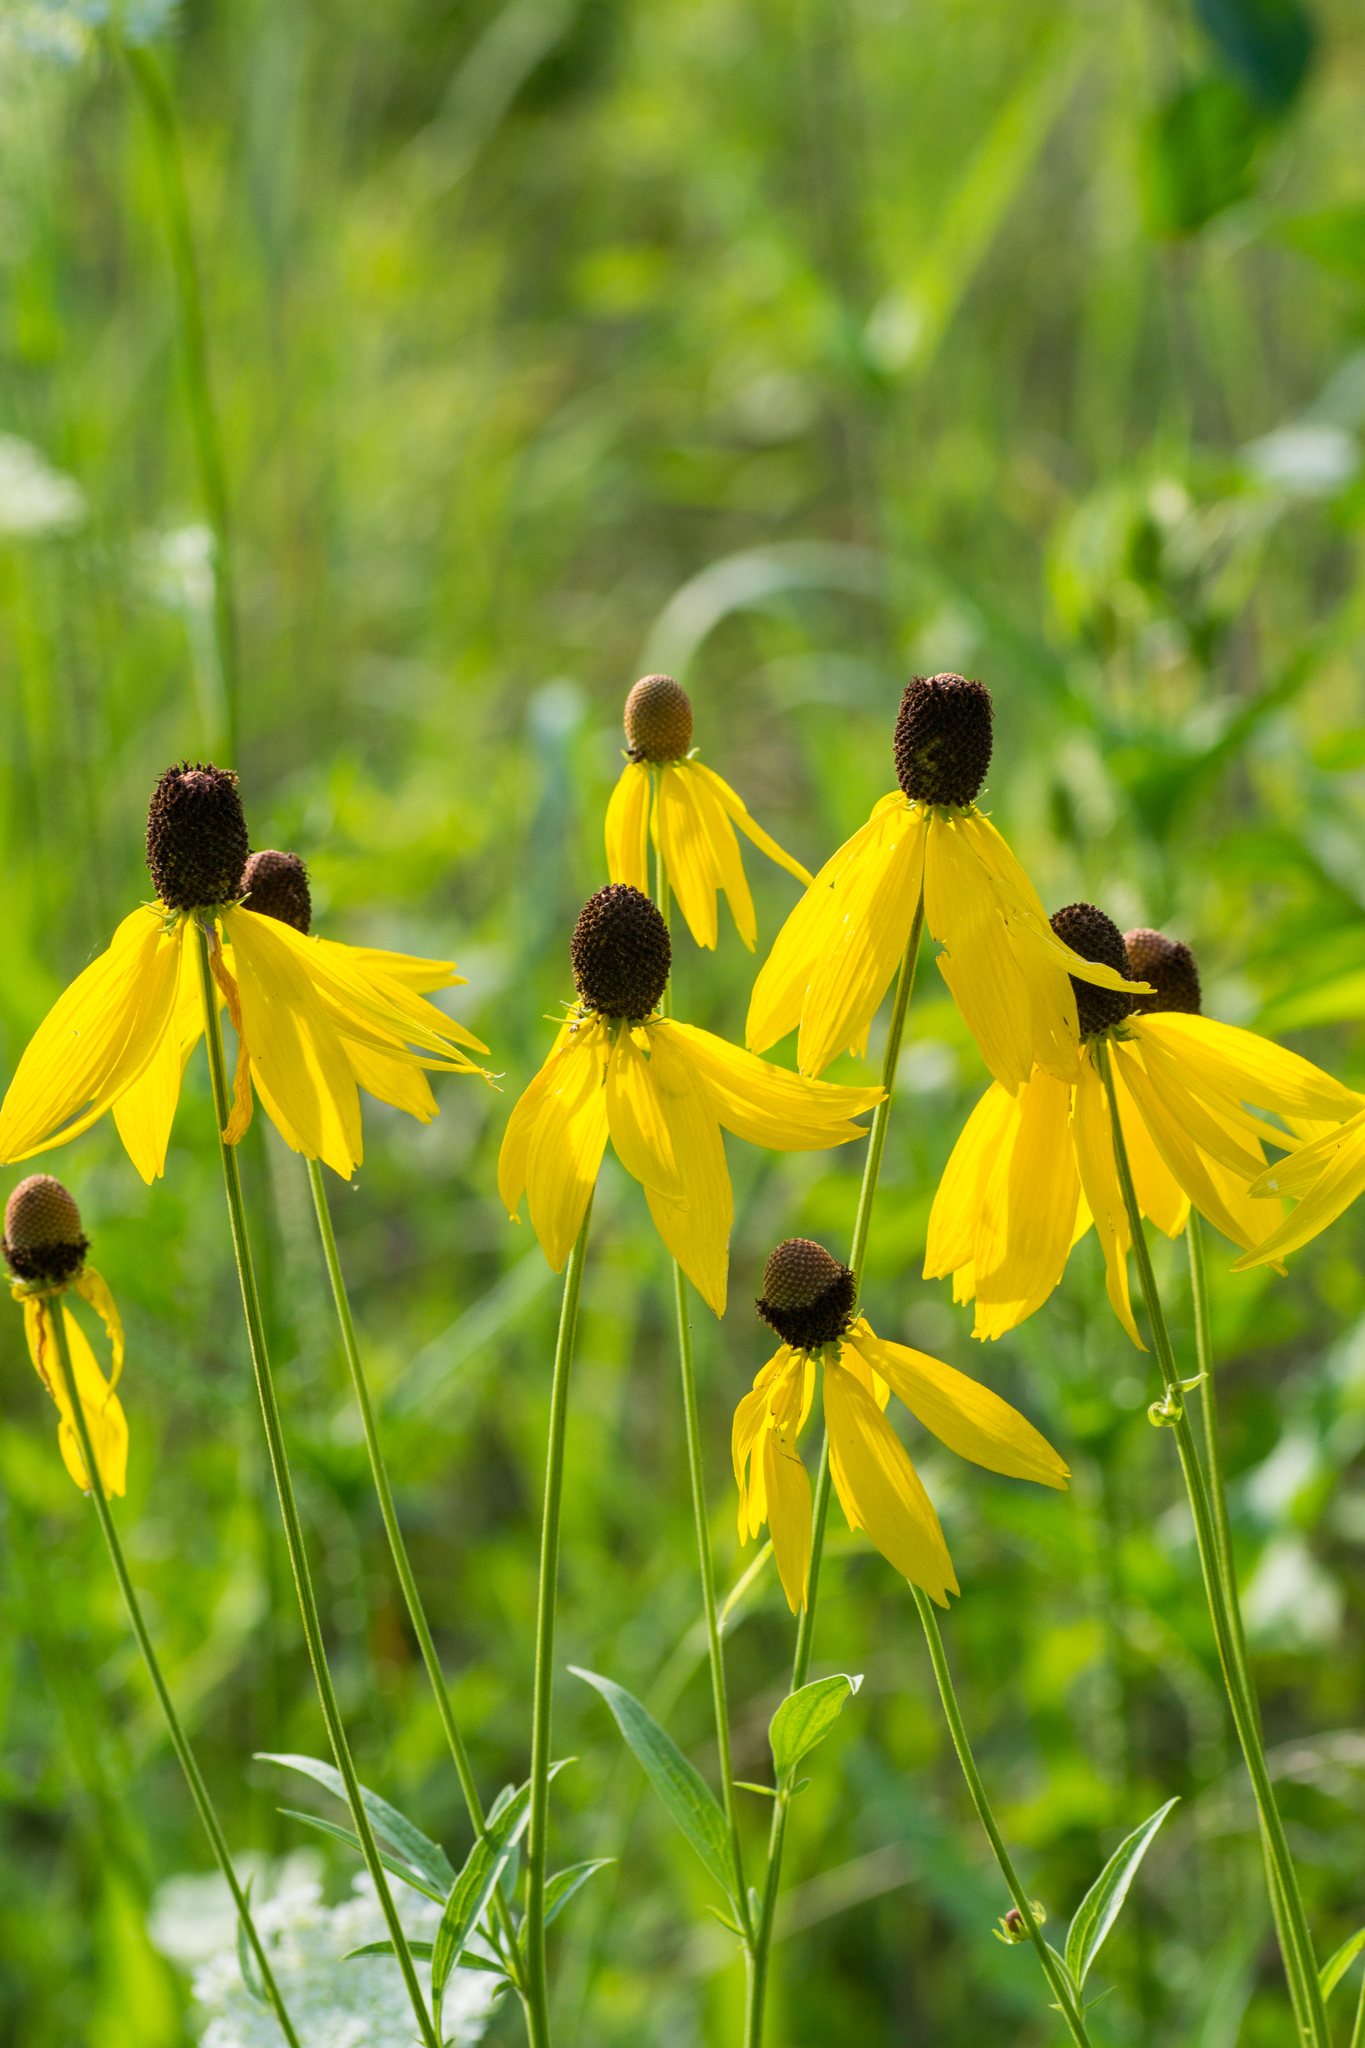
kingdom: Plantae
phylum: Tracheophyta
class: Magnoliopsida
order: Asterales
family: Asteraceae
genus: Ratibida
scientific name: Ratibida pinnata
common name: Drooping prairie-coneflower
